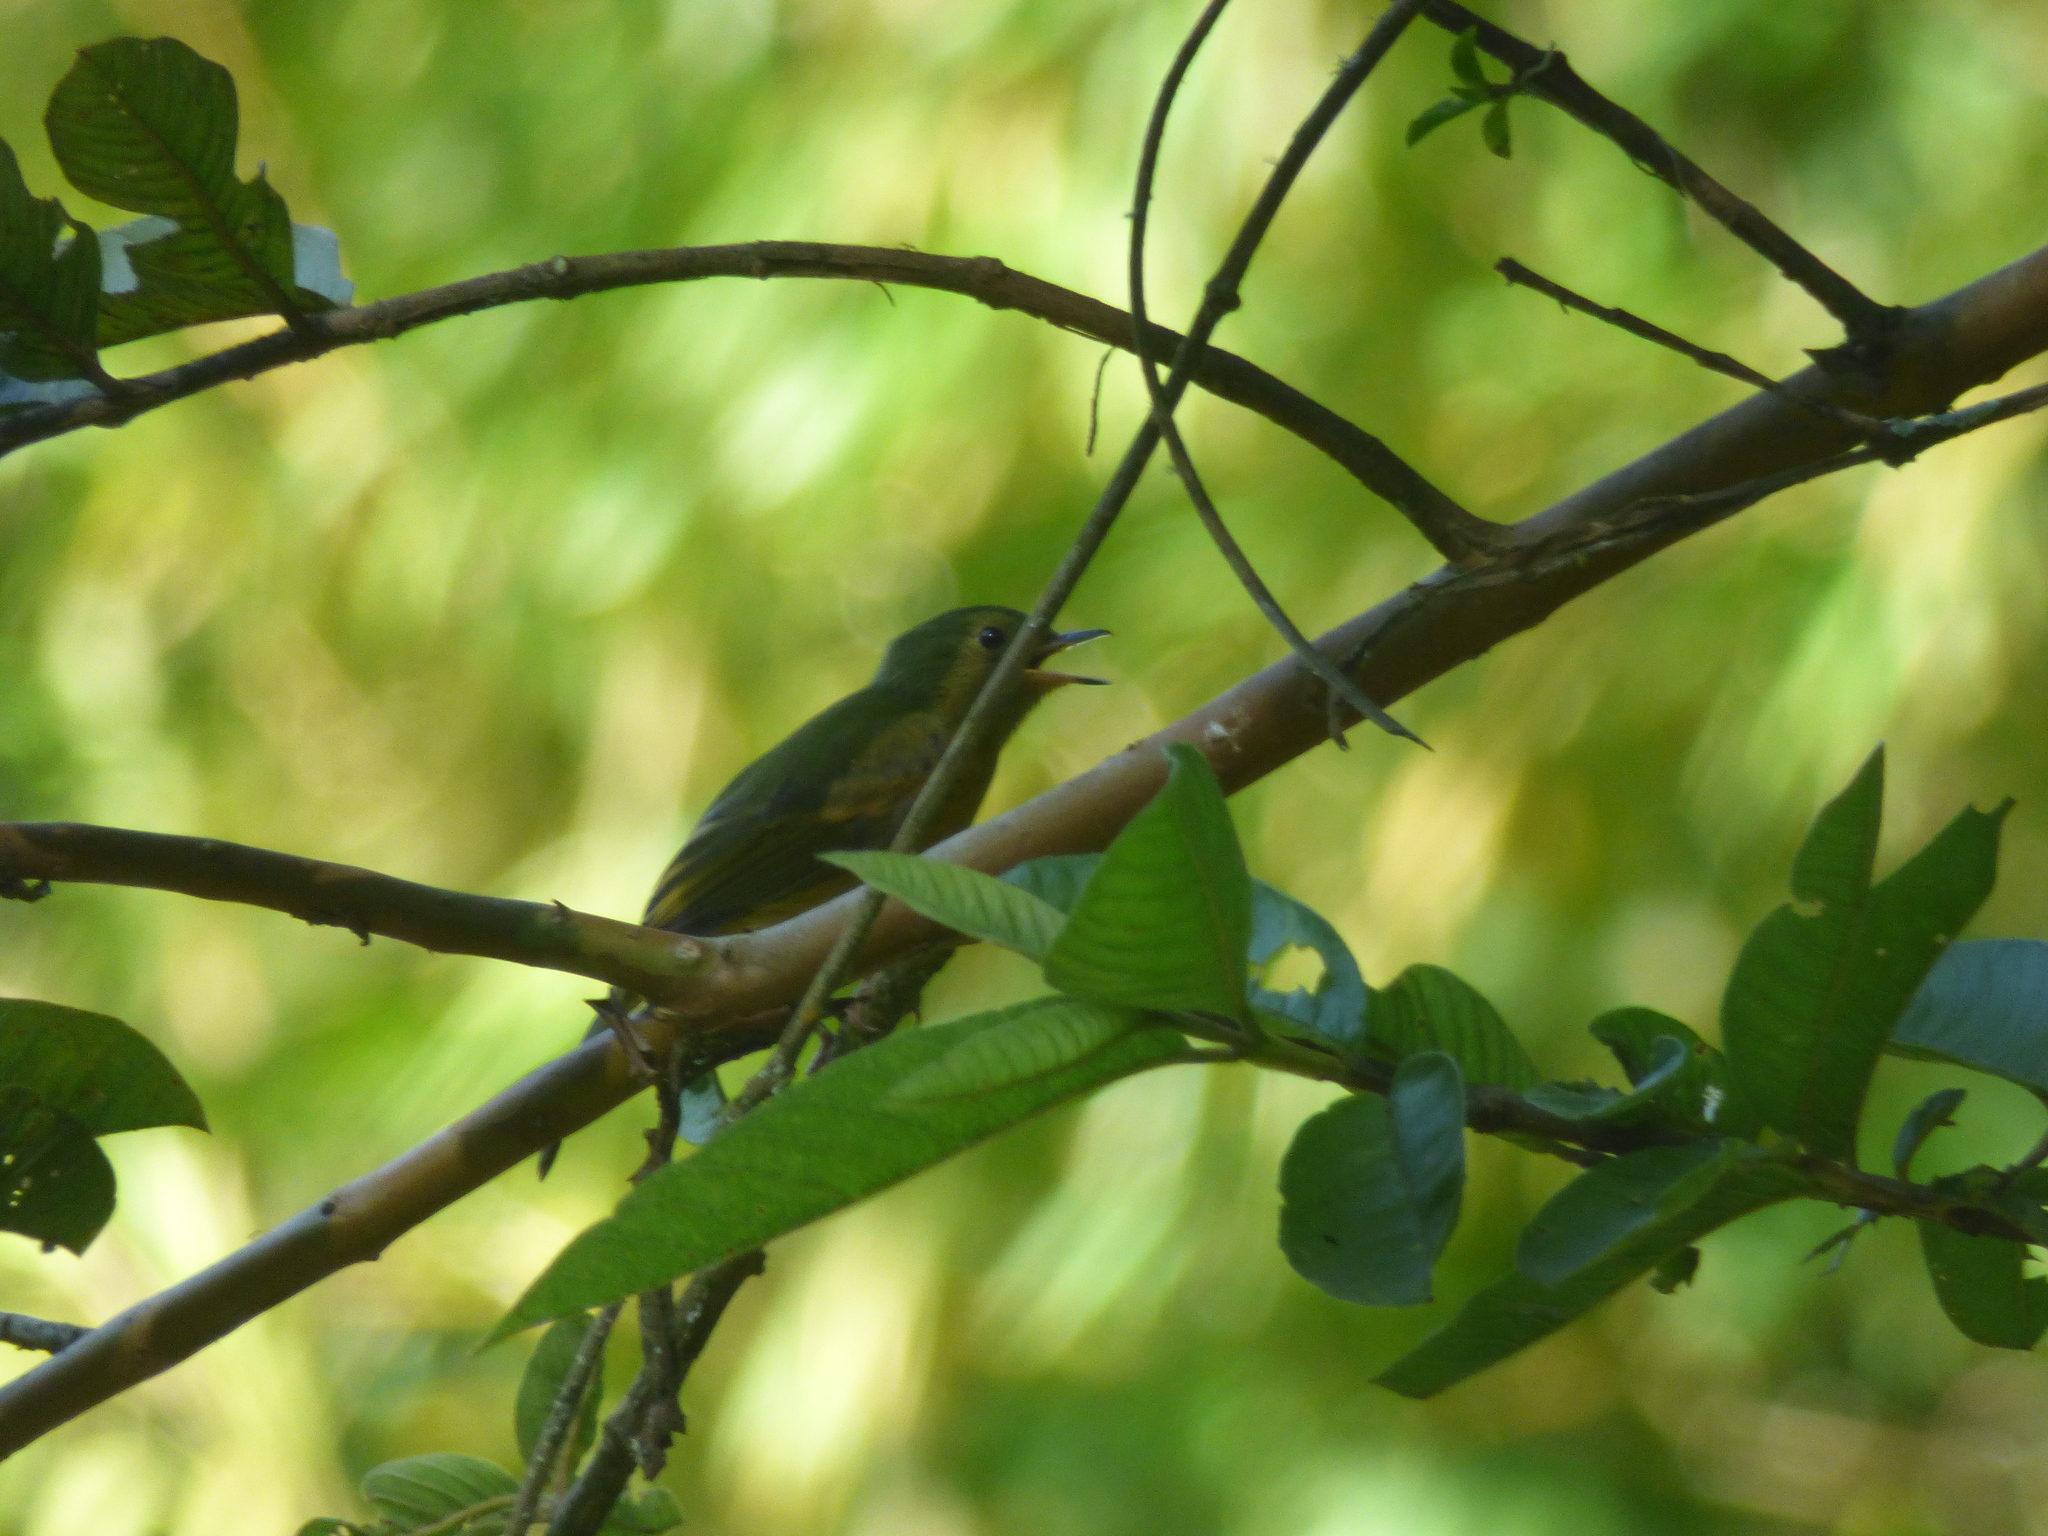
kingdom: Animalia
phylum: Chordata
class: Aves
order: Passeriformes
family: Tyrannidae
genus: Mionectes
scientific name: Mionectes oleagineus
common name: Ochre-bellied flycatcher
